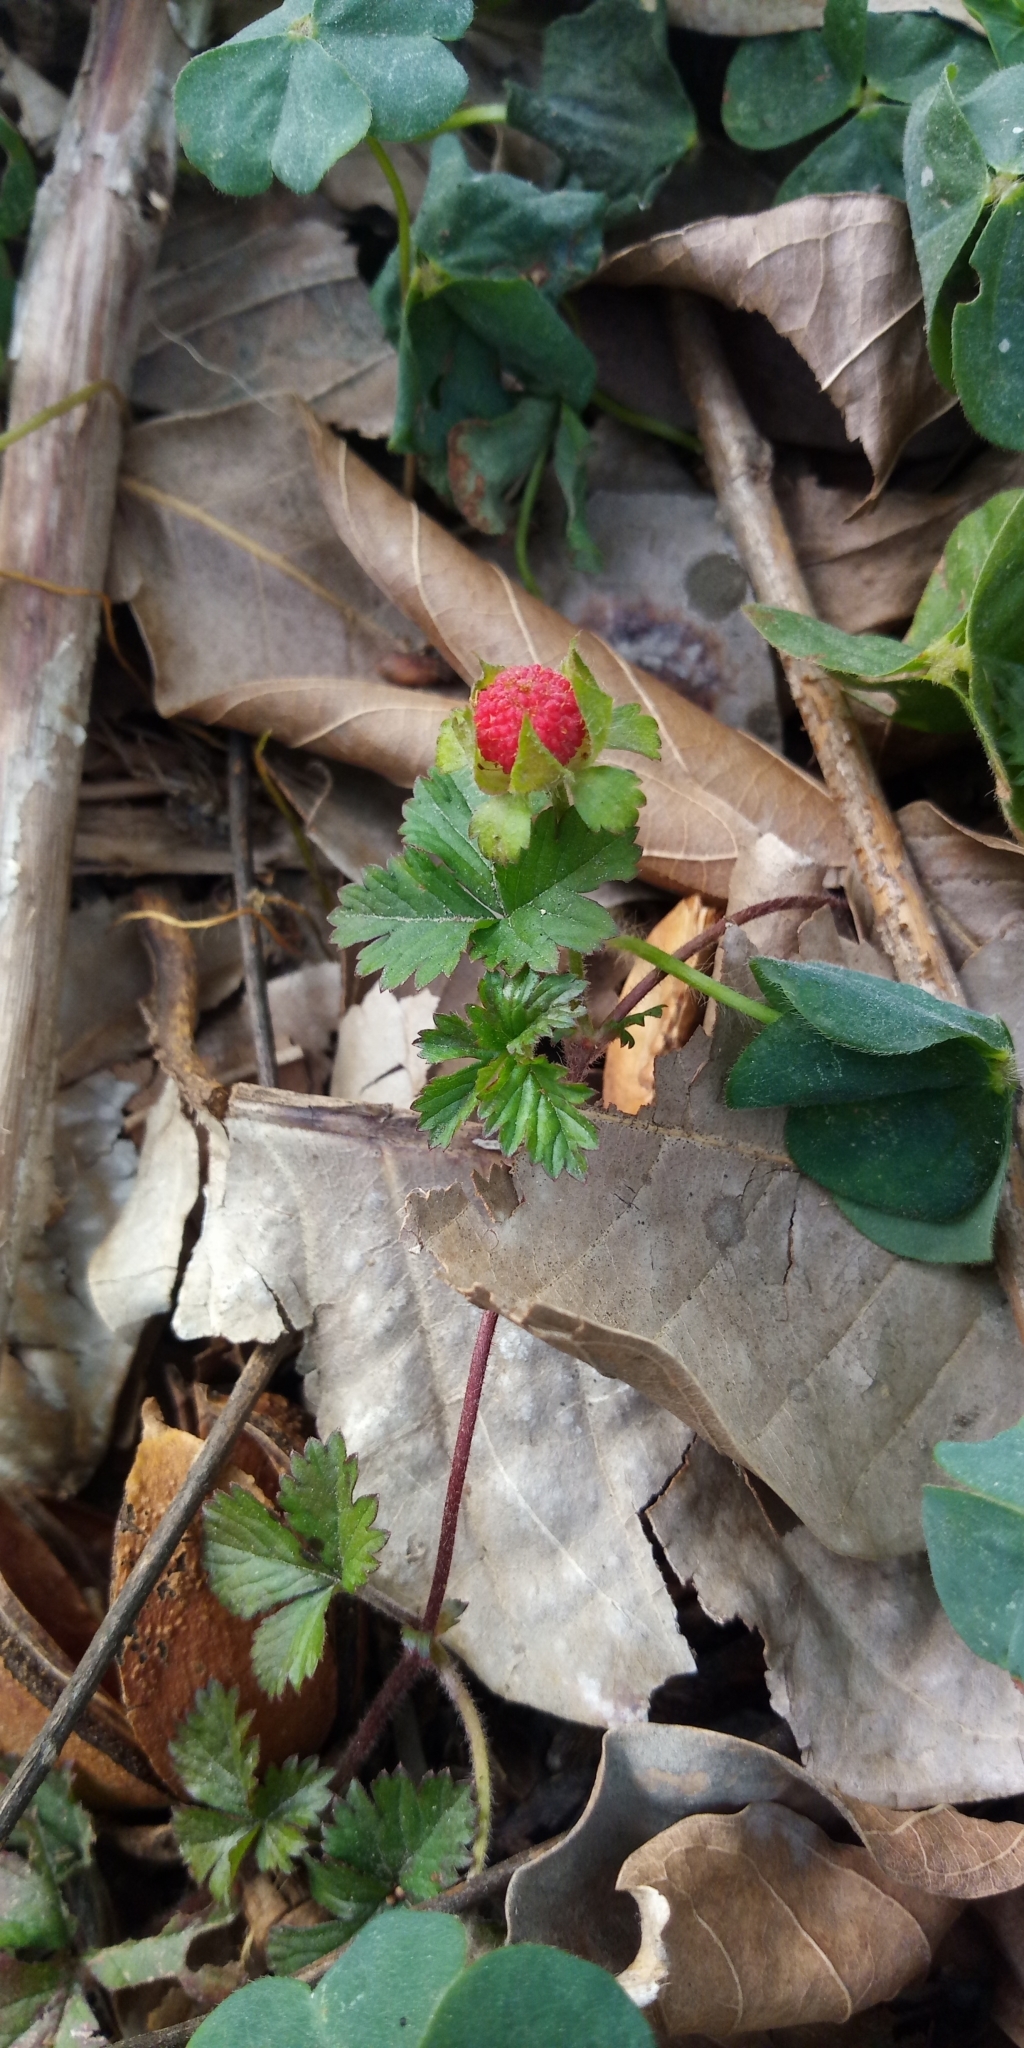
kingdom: Plantae
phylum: Tracheophyta
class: Magnoliopsida
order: Rosales
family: Rosaceae
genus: Potentilla
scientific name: Potentilla wallichiana
